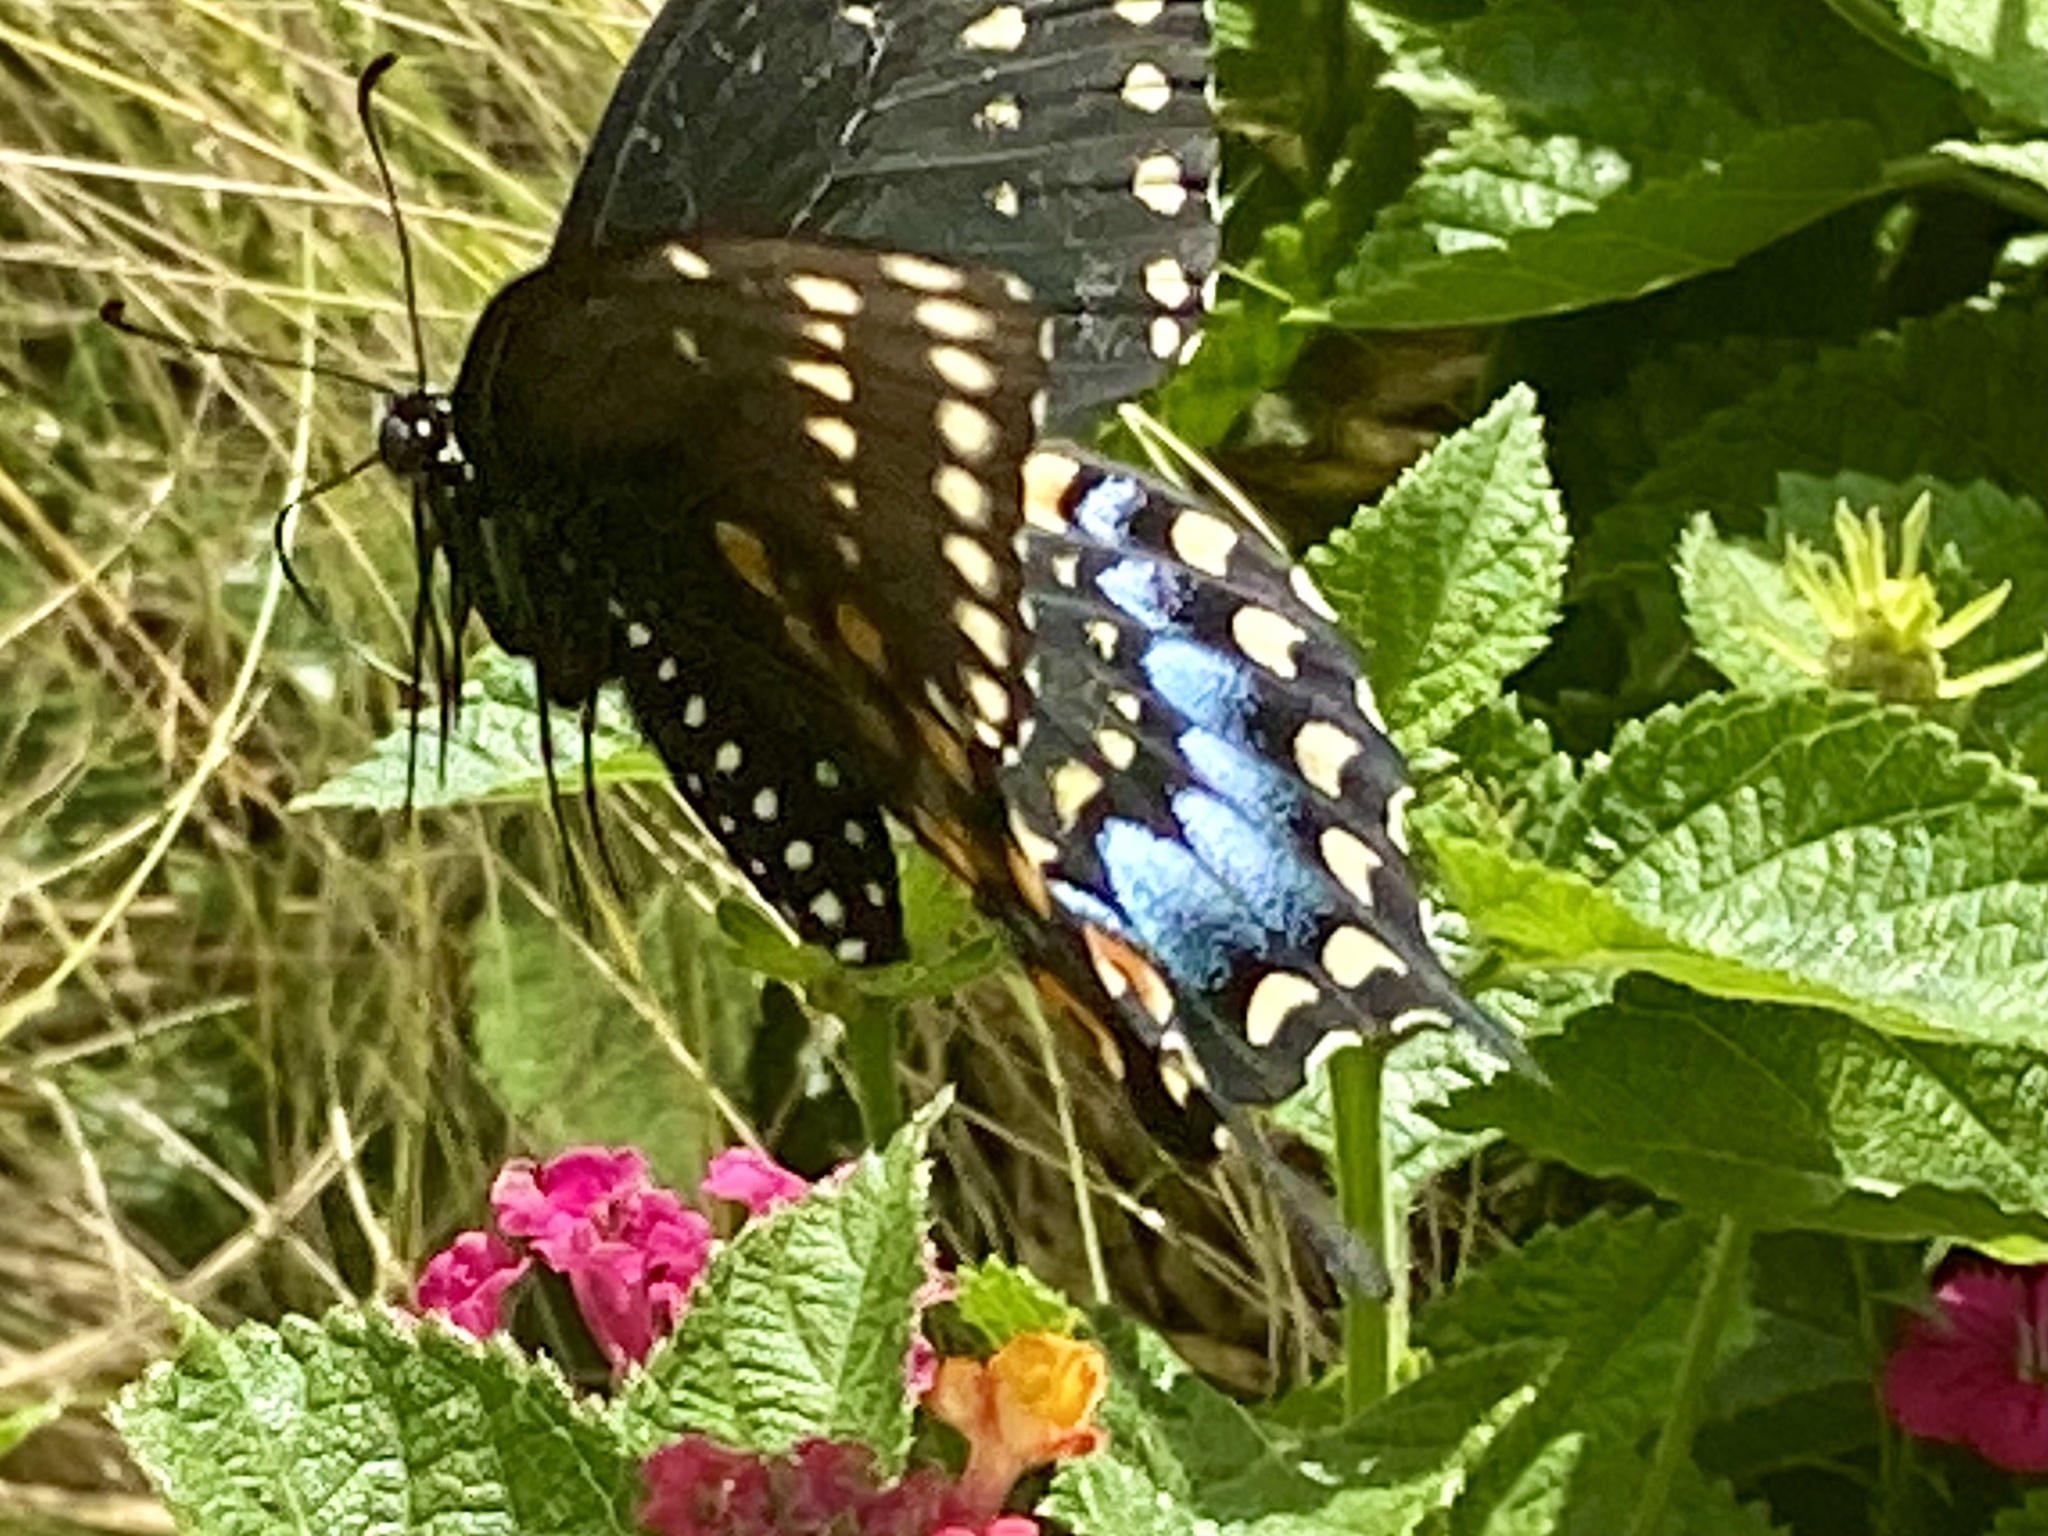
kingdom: Animalia
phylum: Arthropoda
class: Insecta
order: Lepidoptera
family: Papilionidae
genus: Papilio
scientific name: Papilio polyxenes
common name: Black swallowtail
